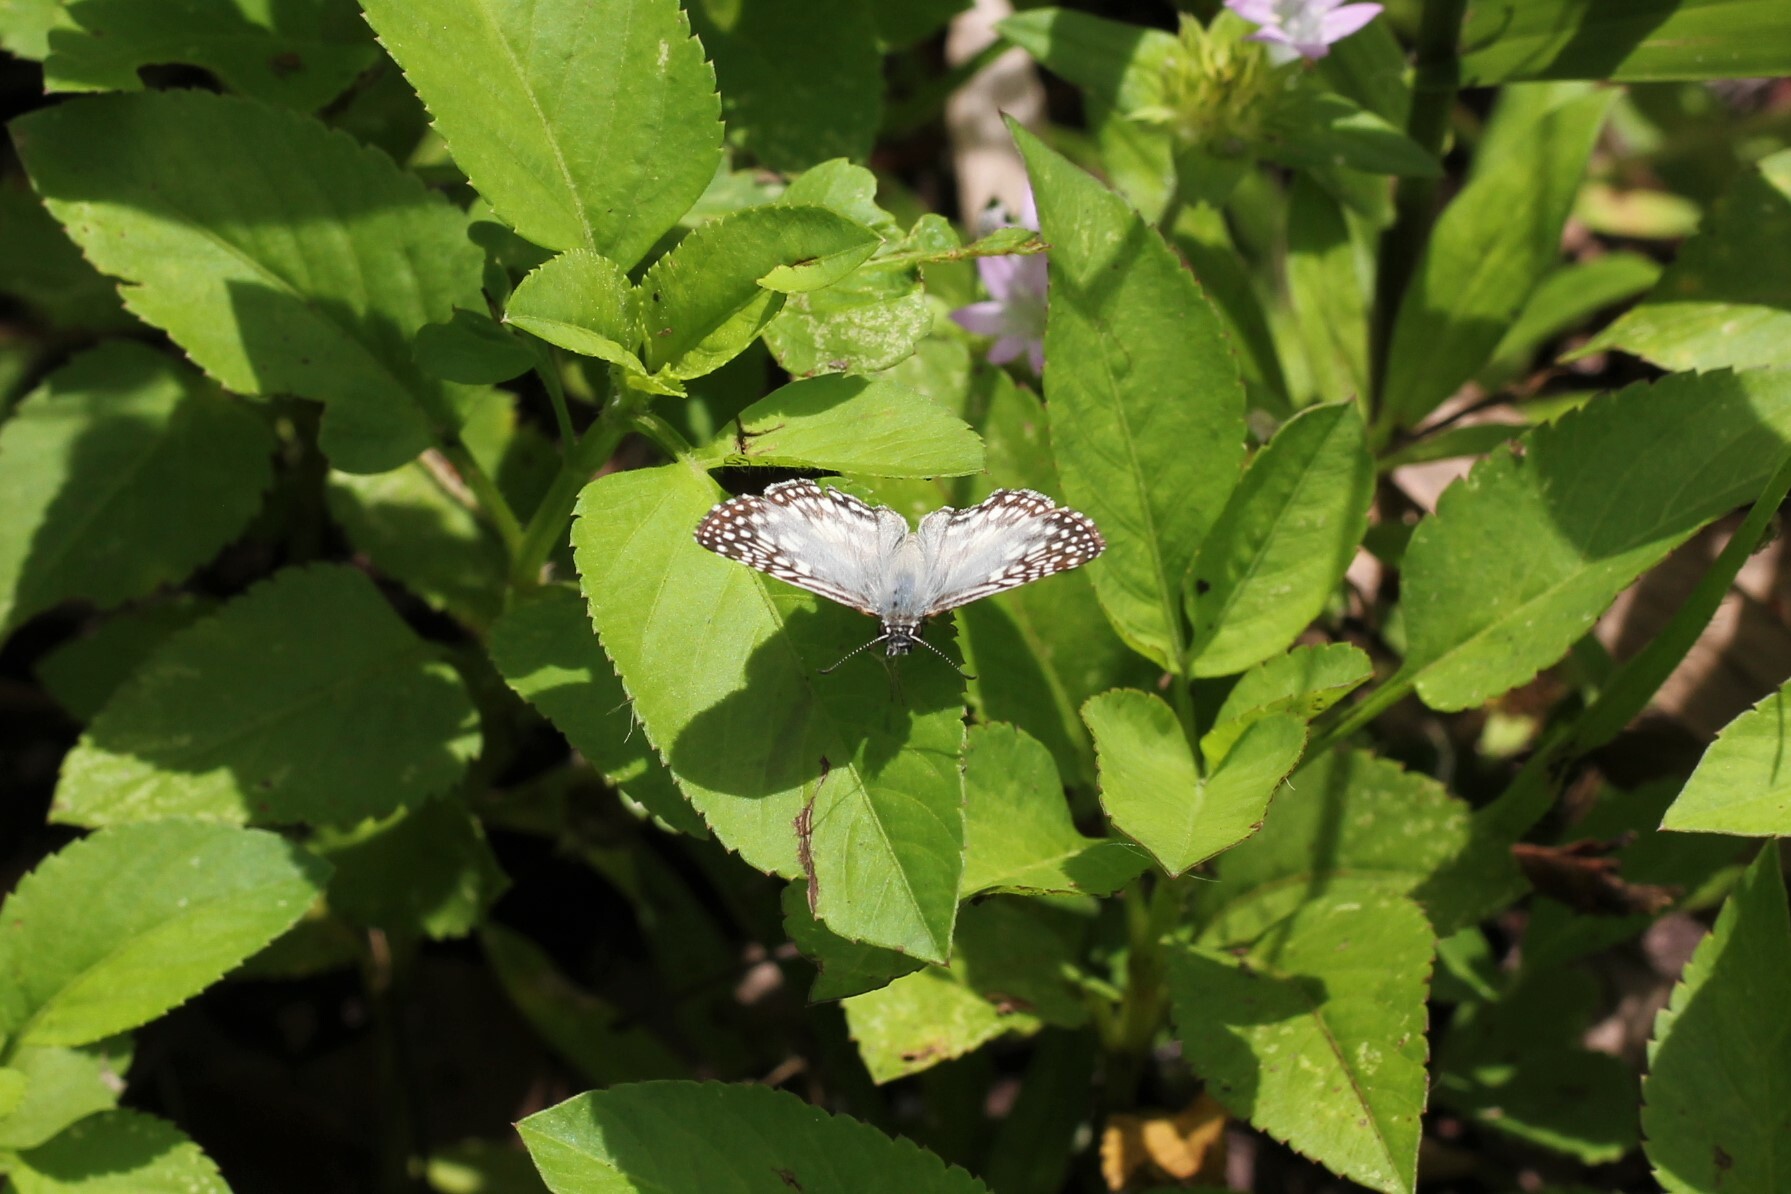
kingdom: Animalia
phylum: Arthropoda
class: Insecta
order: Lepidoptera
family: Hesperiidae
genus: Pyrgus
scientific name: Pyrgus oileus
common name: Tropical checkered-skipper
